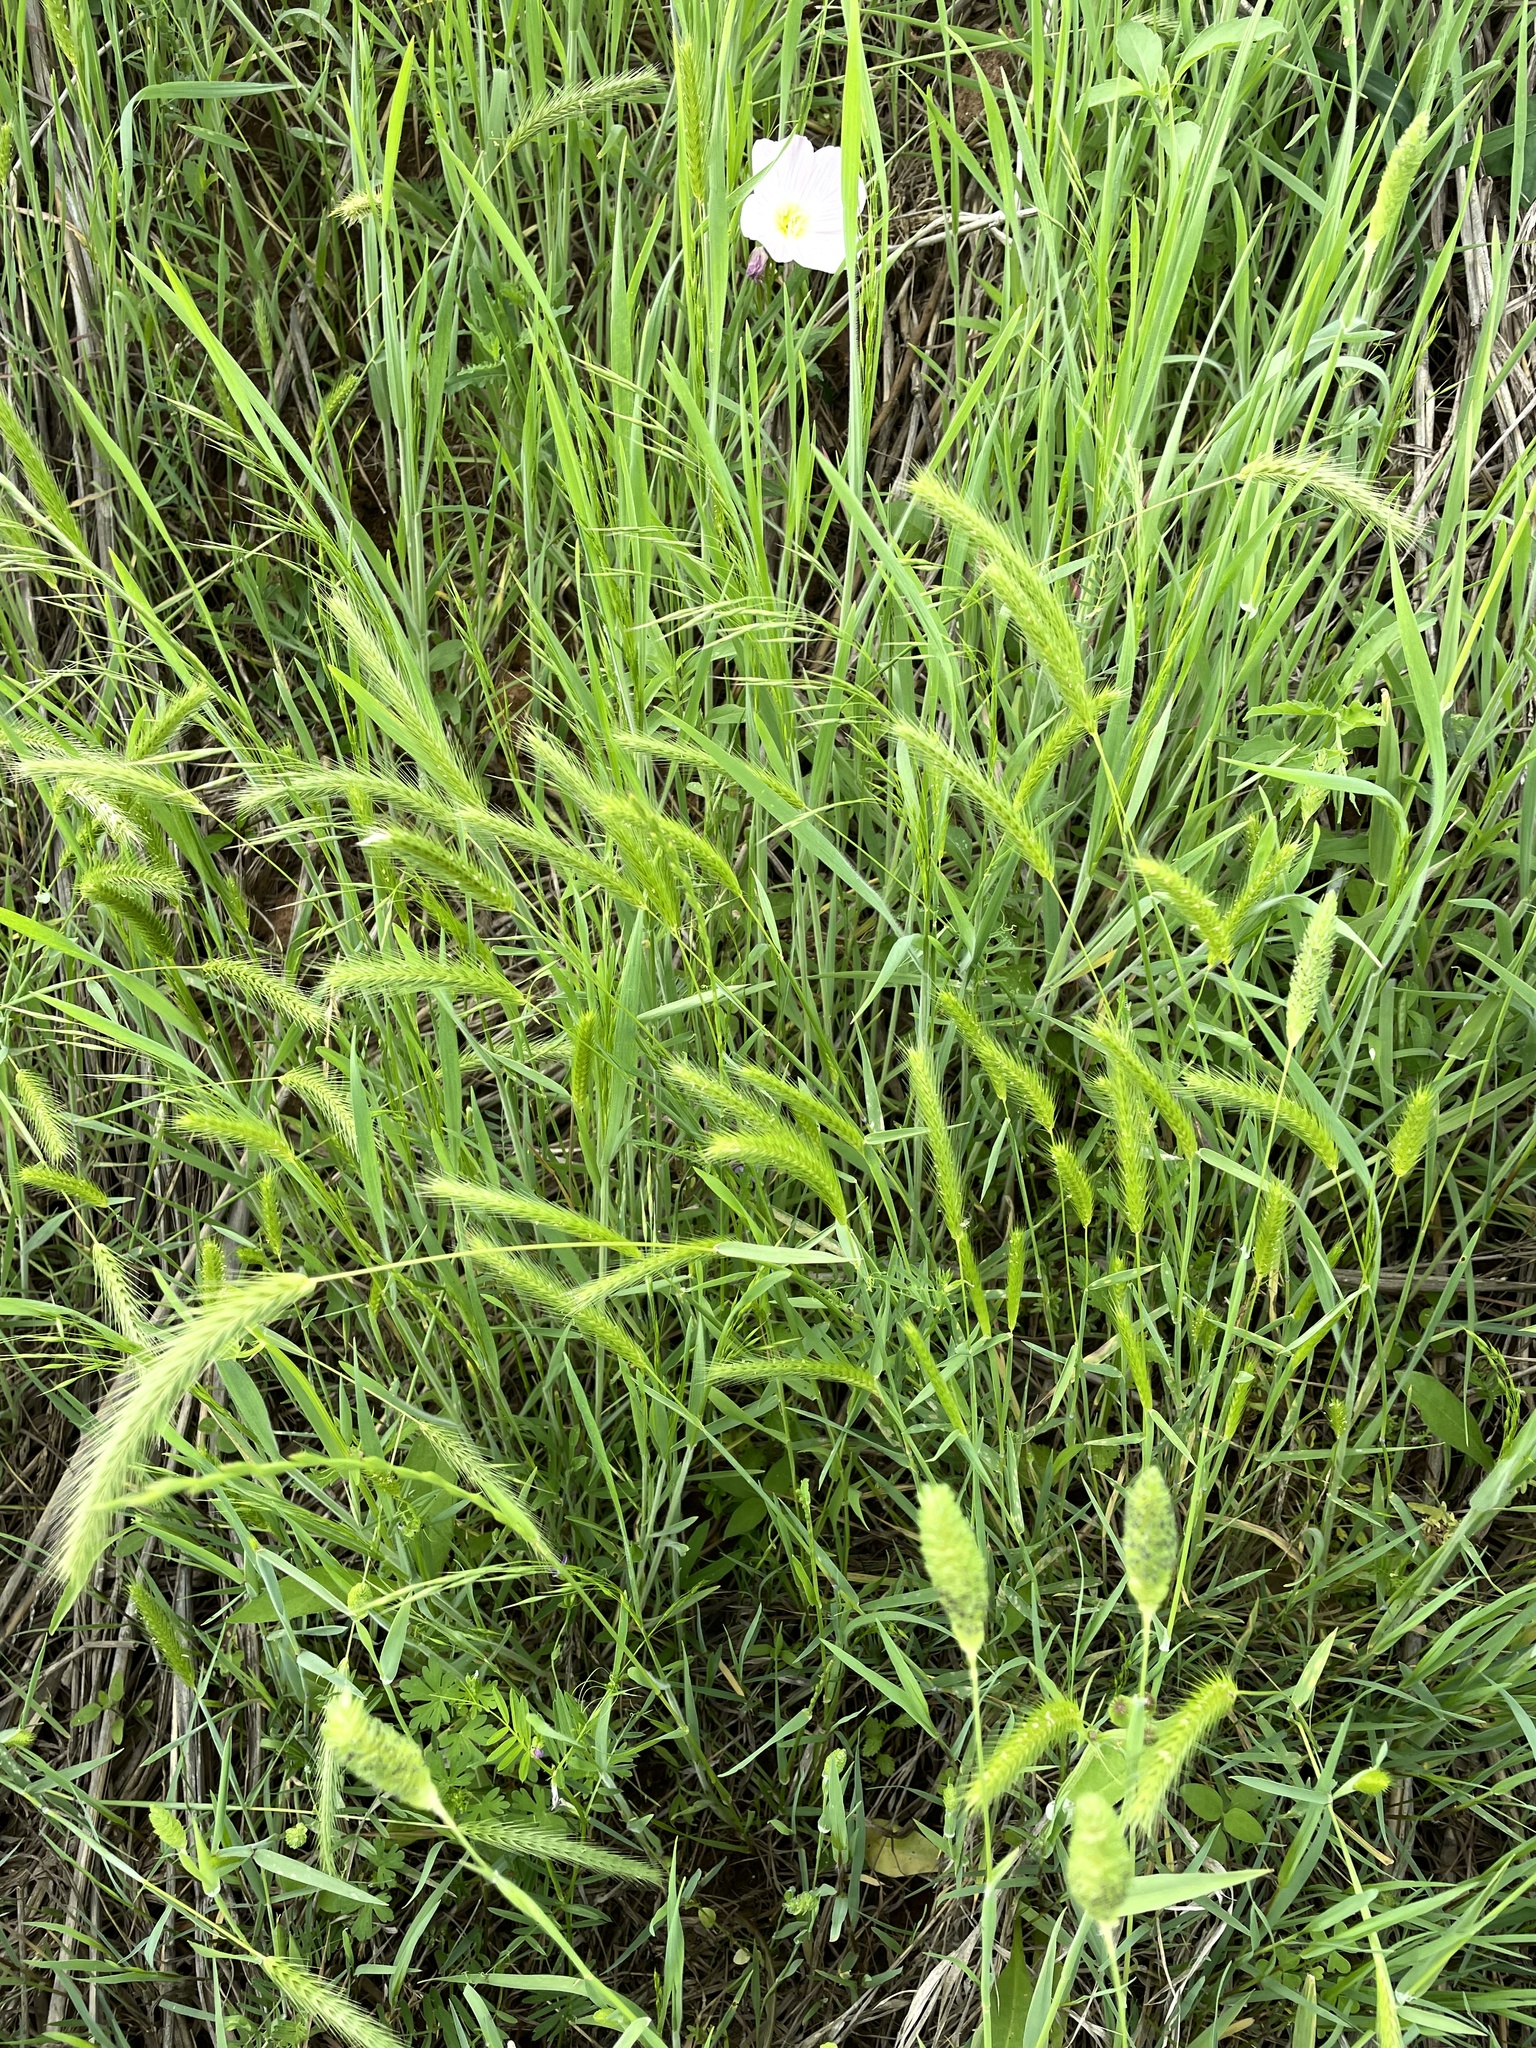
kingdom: Plantae
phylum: Tracheophyta
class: Liliopsida
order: Poales
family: Poaceae
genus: Hordeum
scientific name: Hordeum pusillum
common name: Little barley
